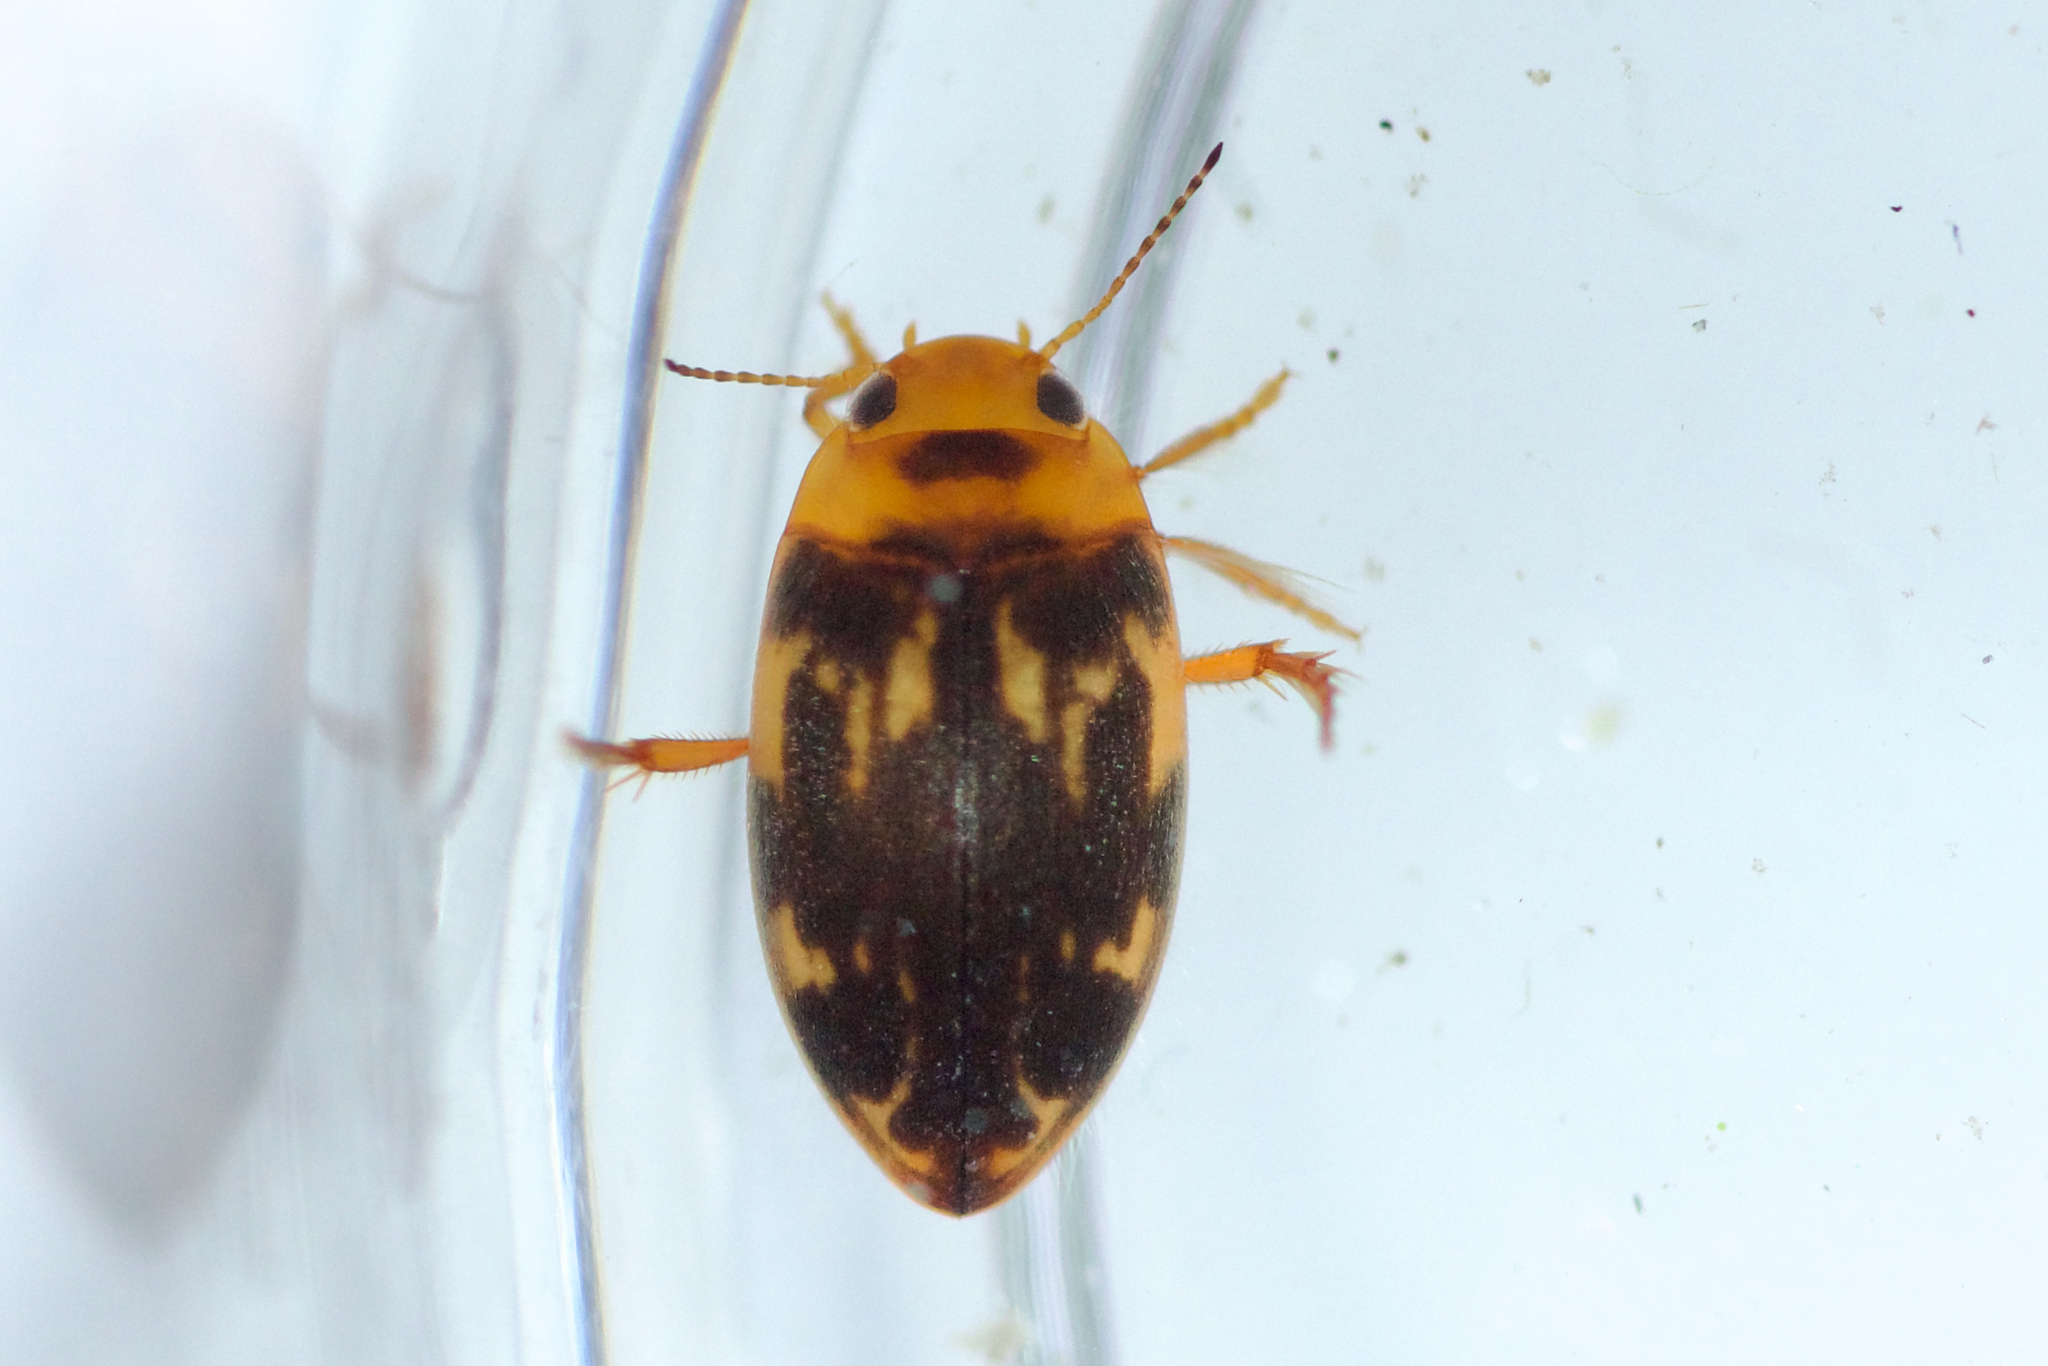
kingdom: Animalia
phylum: Arthropoda
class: Insecta
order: Coleoptera
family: Dytiscidae
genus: Neoporus
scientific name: Neoporus undulatus
